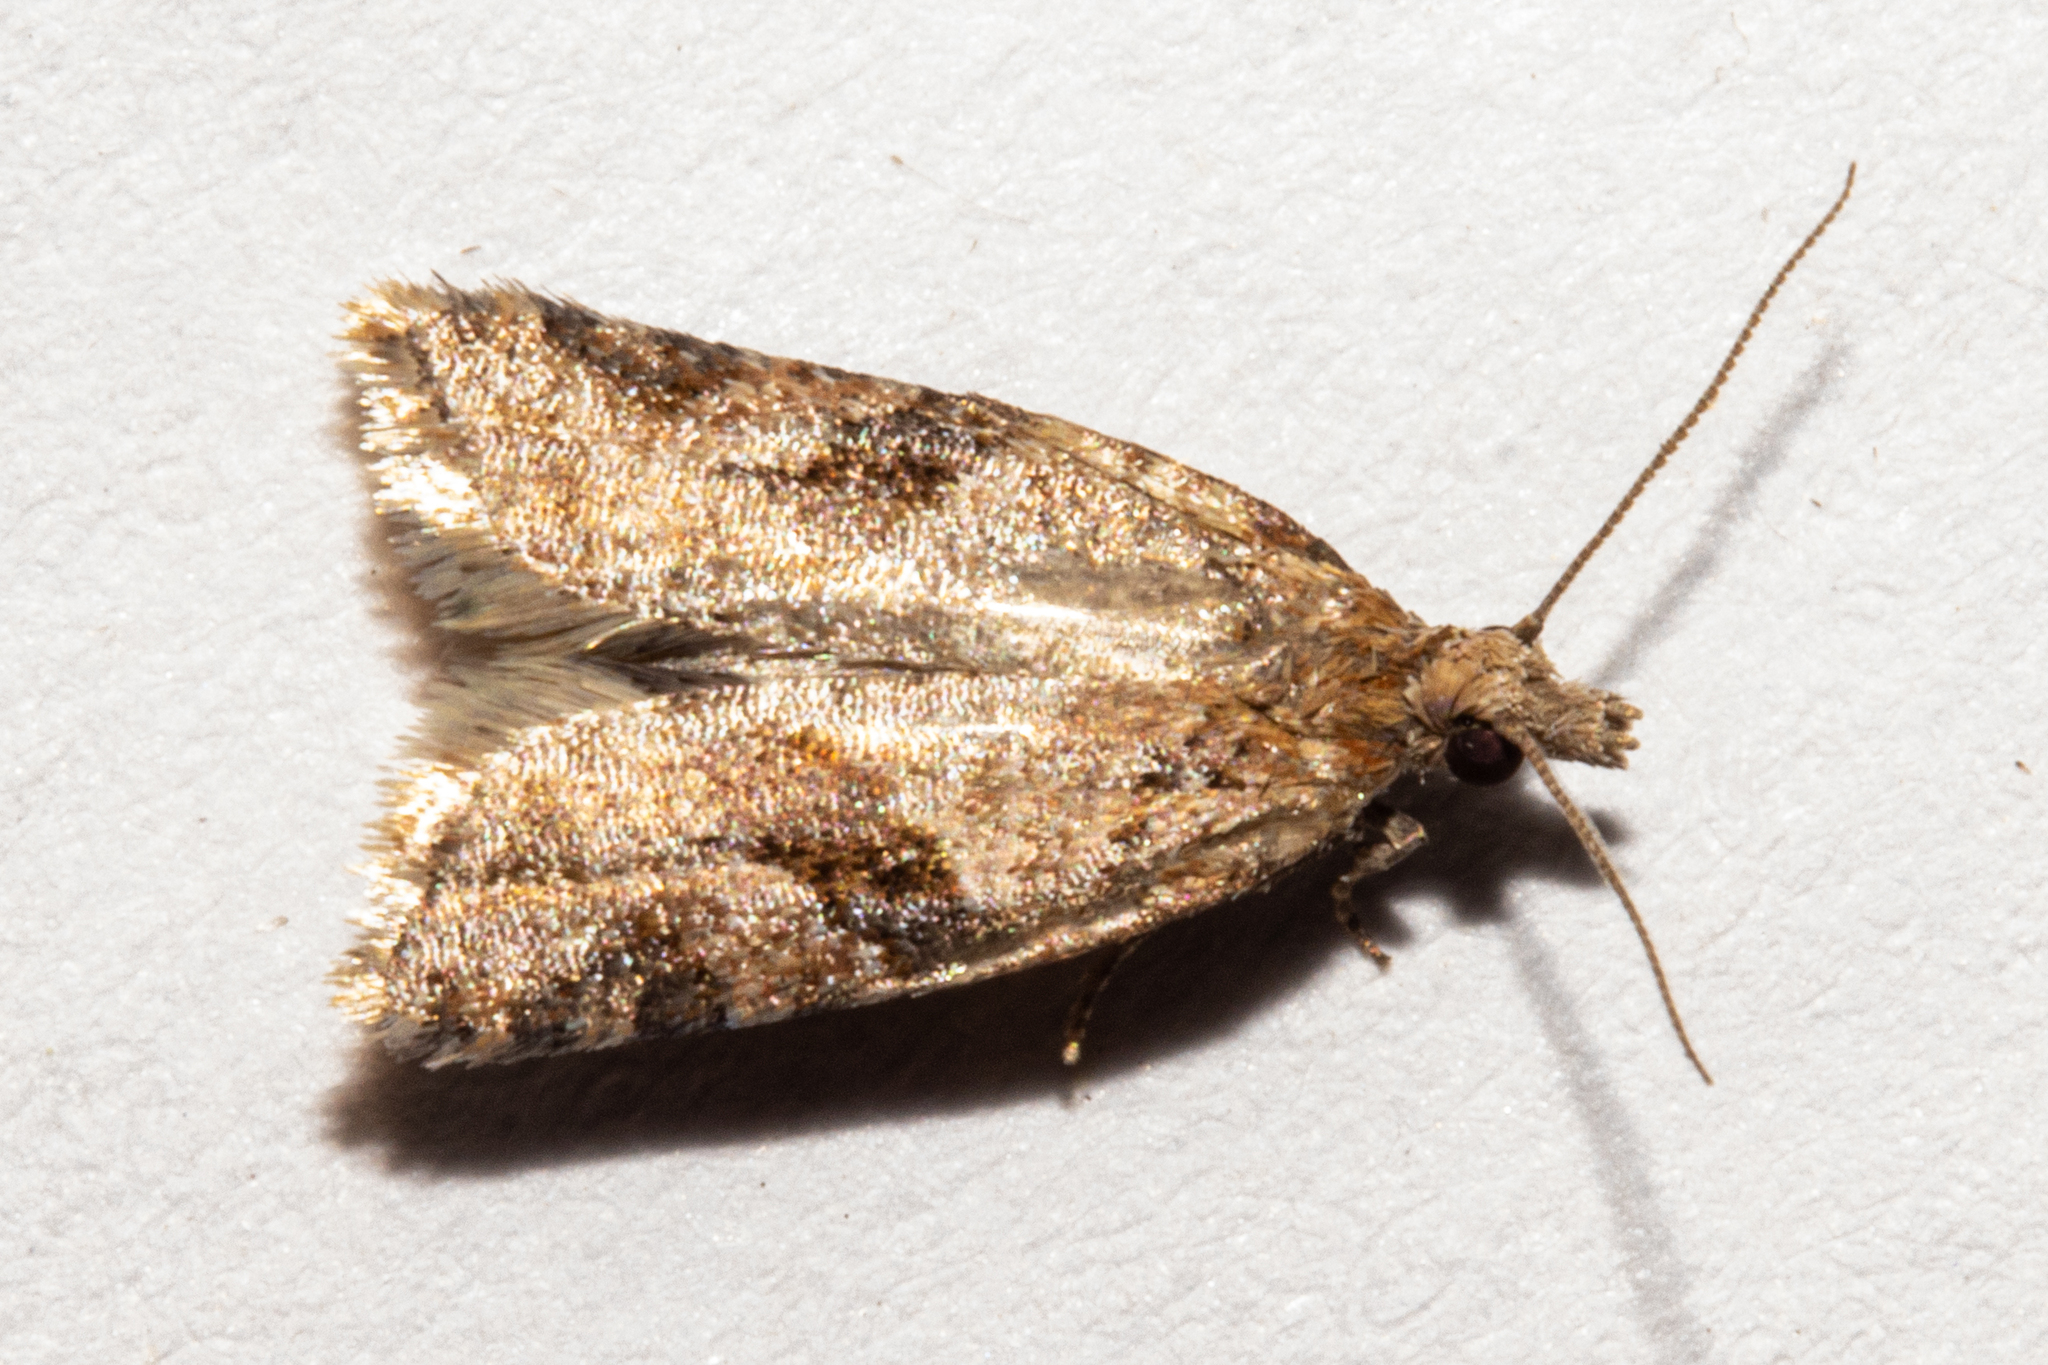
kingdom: Animalia
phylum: Arthropoda
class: Insecta
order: Lepidoptera
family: Tortricidae
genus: Capua
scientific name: Capua semiferana
